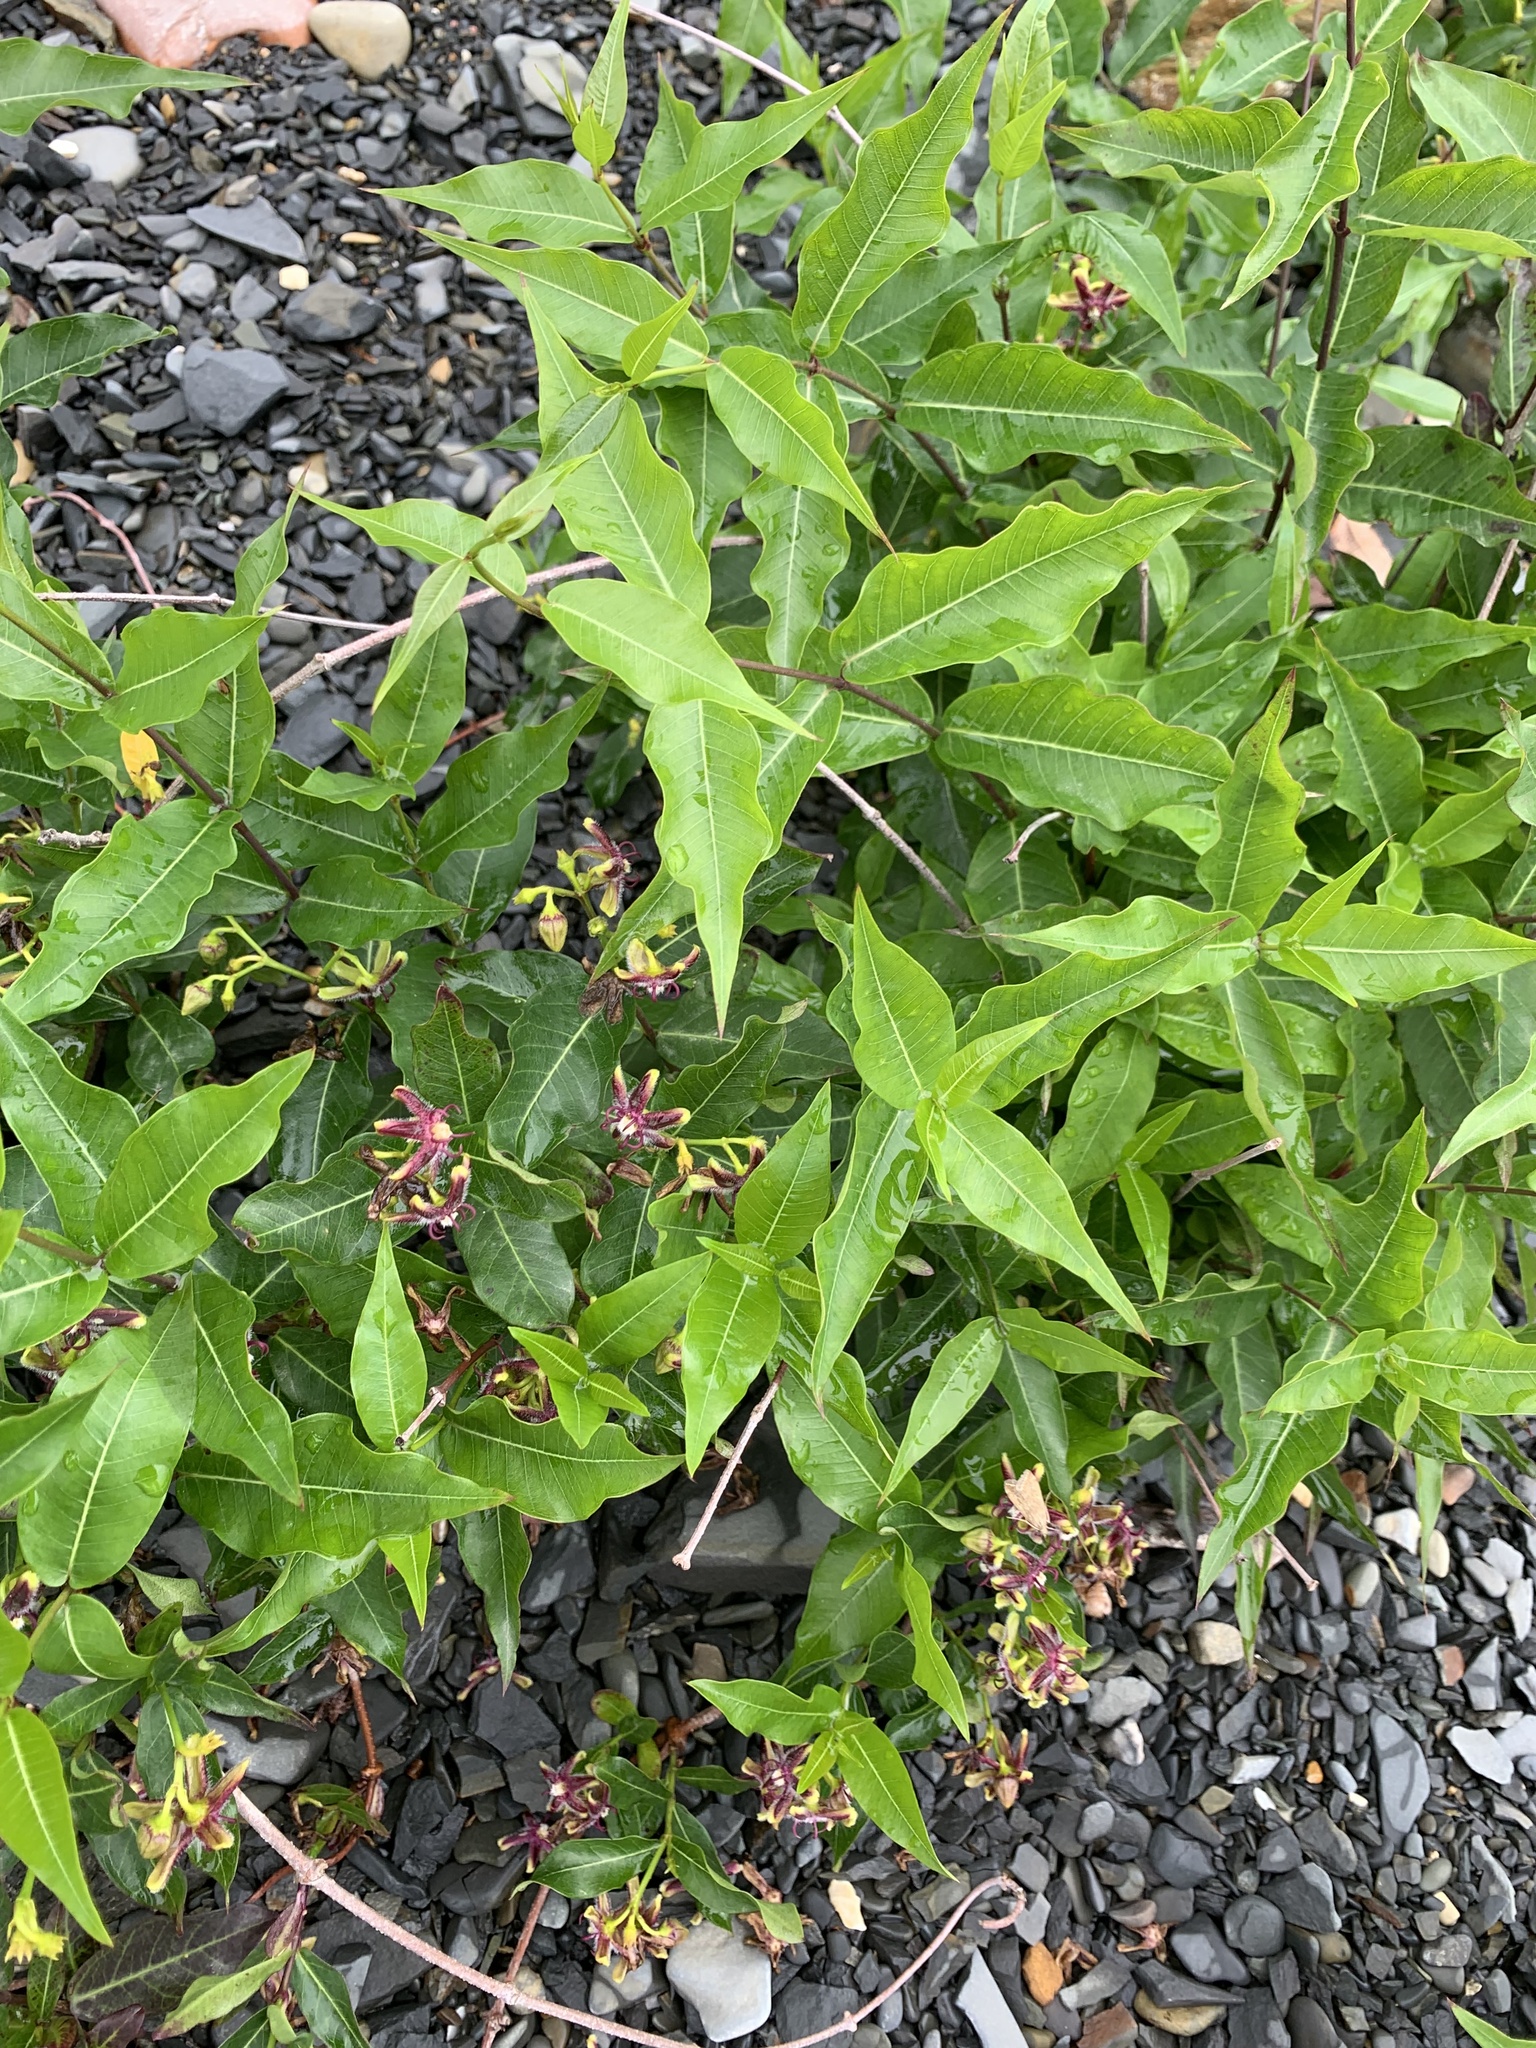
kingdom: Plantae
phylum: Tracheophyta
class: Magnoliopsida
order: Gentianales
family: Apocynaceae
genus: Periploca
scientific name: Periploca graeca
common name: Silkvine
